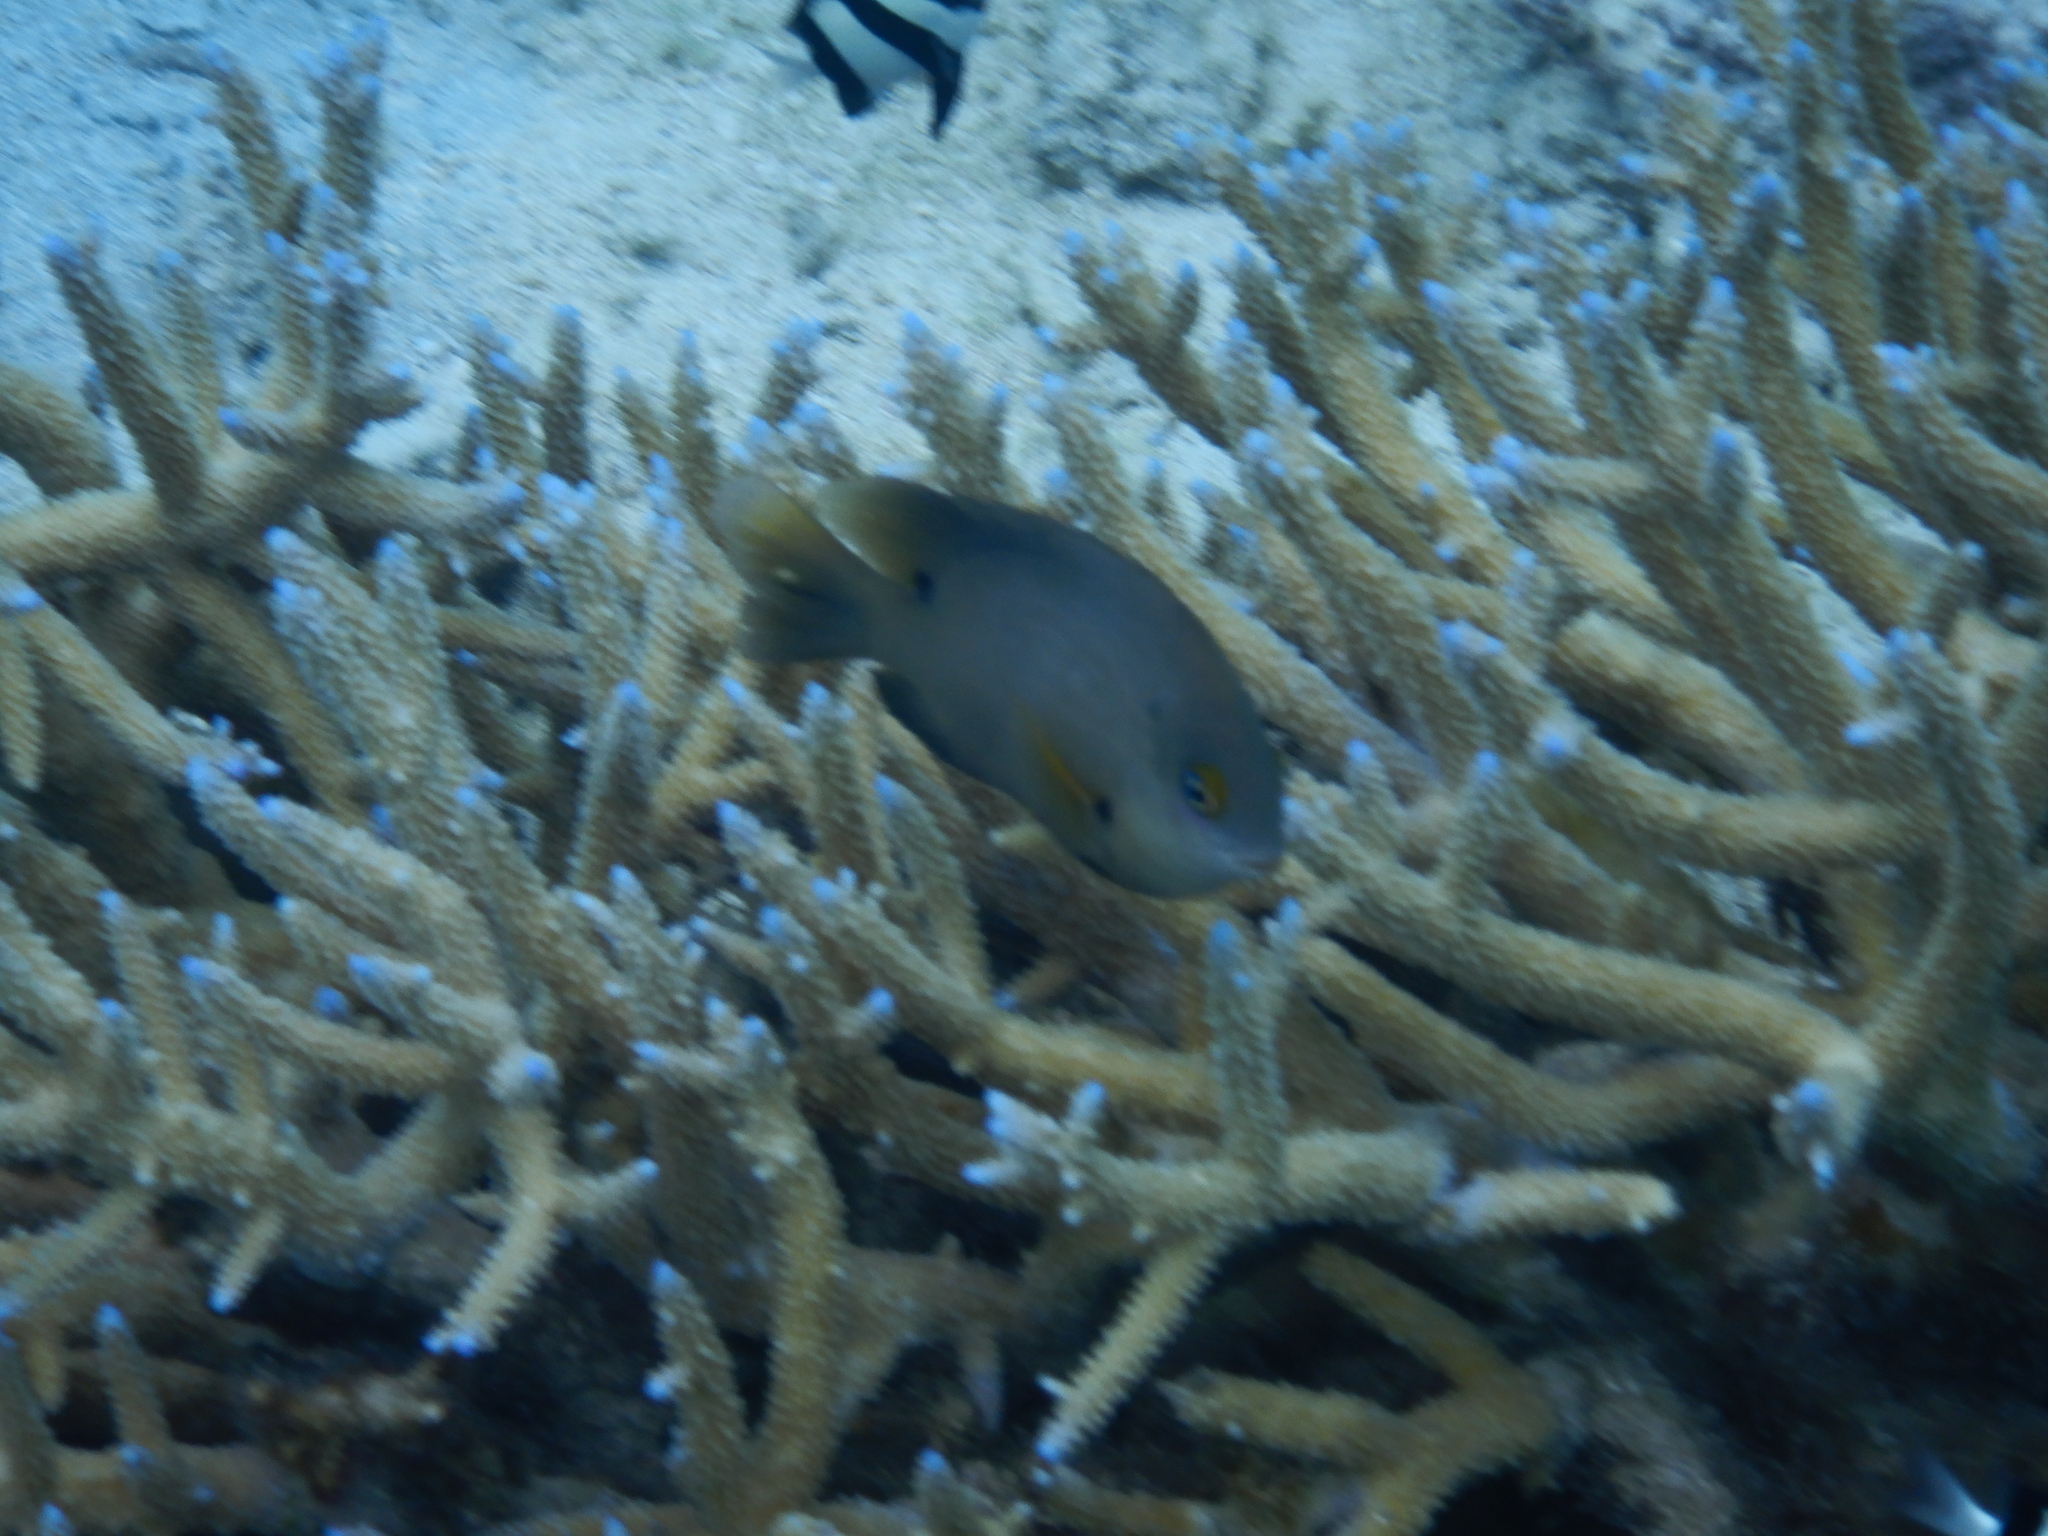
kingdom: Animalia
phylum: Chordata
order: Perciformes
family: Pomacentridae
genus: Stegastes
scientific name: Stegastes nigricans
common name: Dusky gregory
